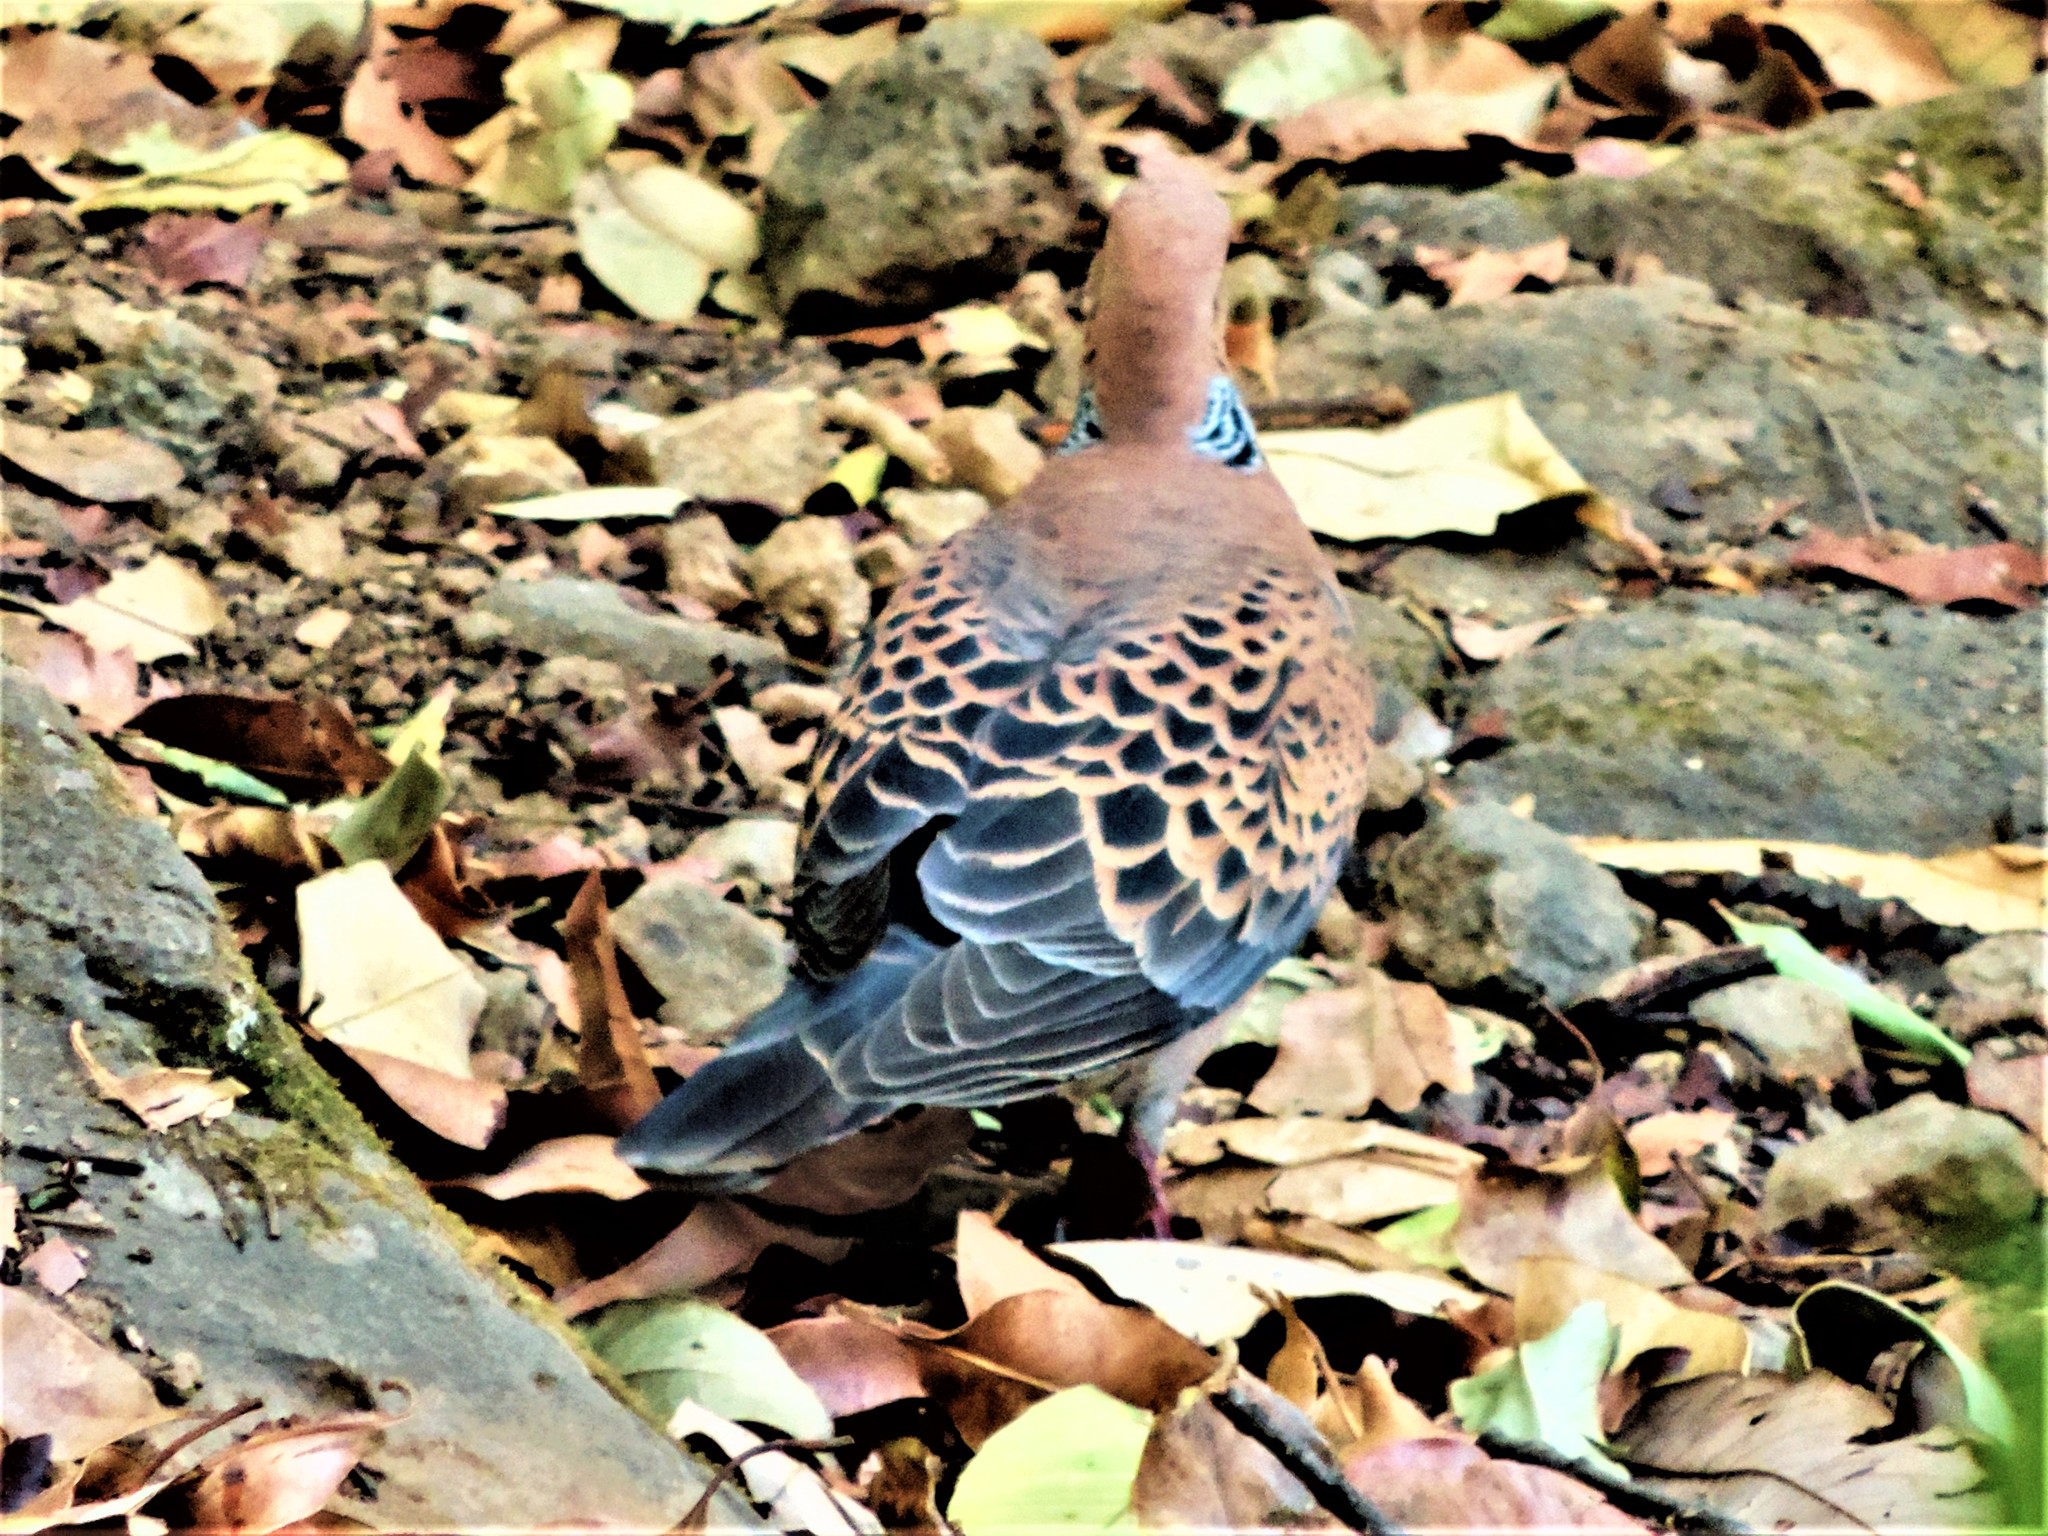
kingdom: Animalia
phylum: Chordata
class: Aves
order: Columbiformes
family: Columbidae
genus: Streptopelia
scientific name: Streptopelia orientalis
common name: Oriental turtle dove
